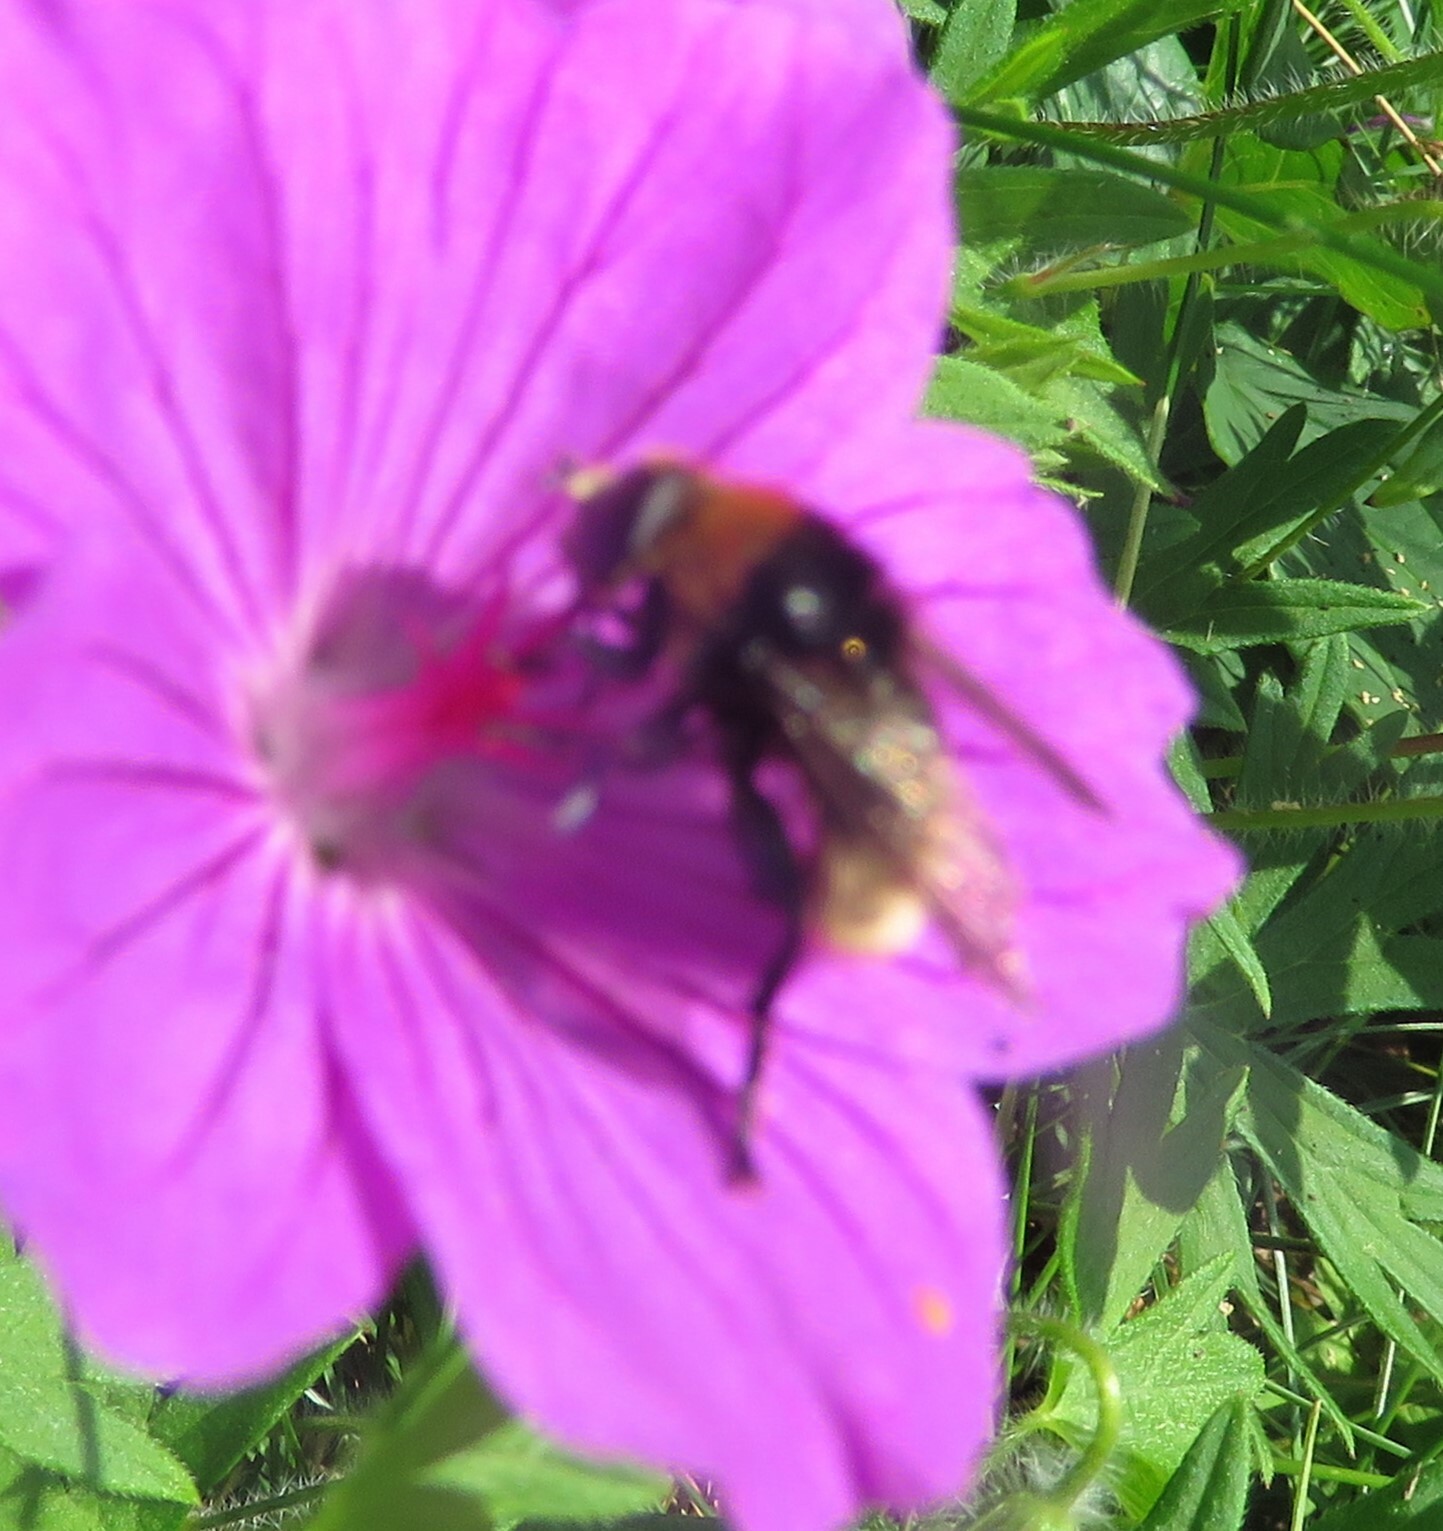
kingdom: Animalia
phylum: Arthropoda
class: Insecta
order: Diptera
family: Syrphidae
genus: Merodon
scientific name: Merodon equestris
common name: Greater bulb-fly
